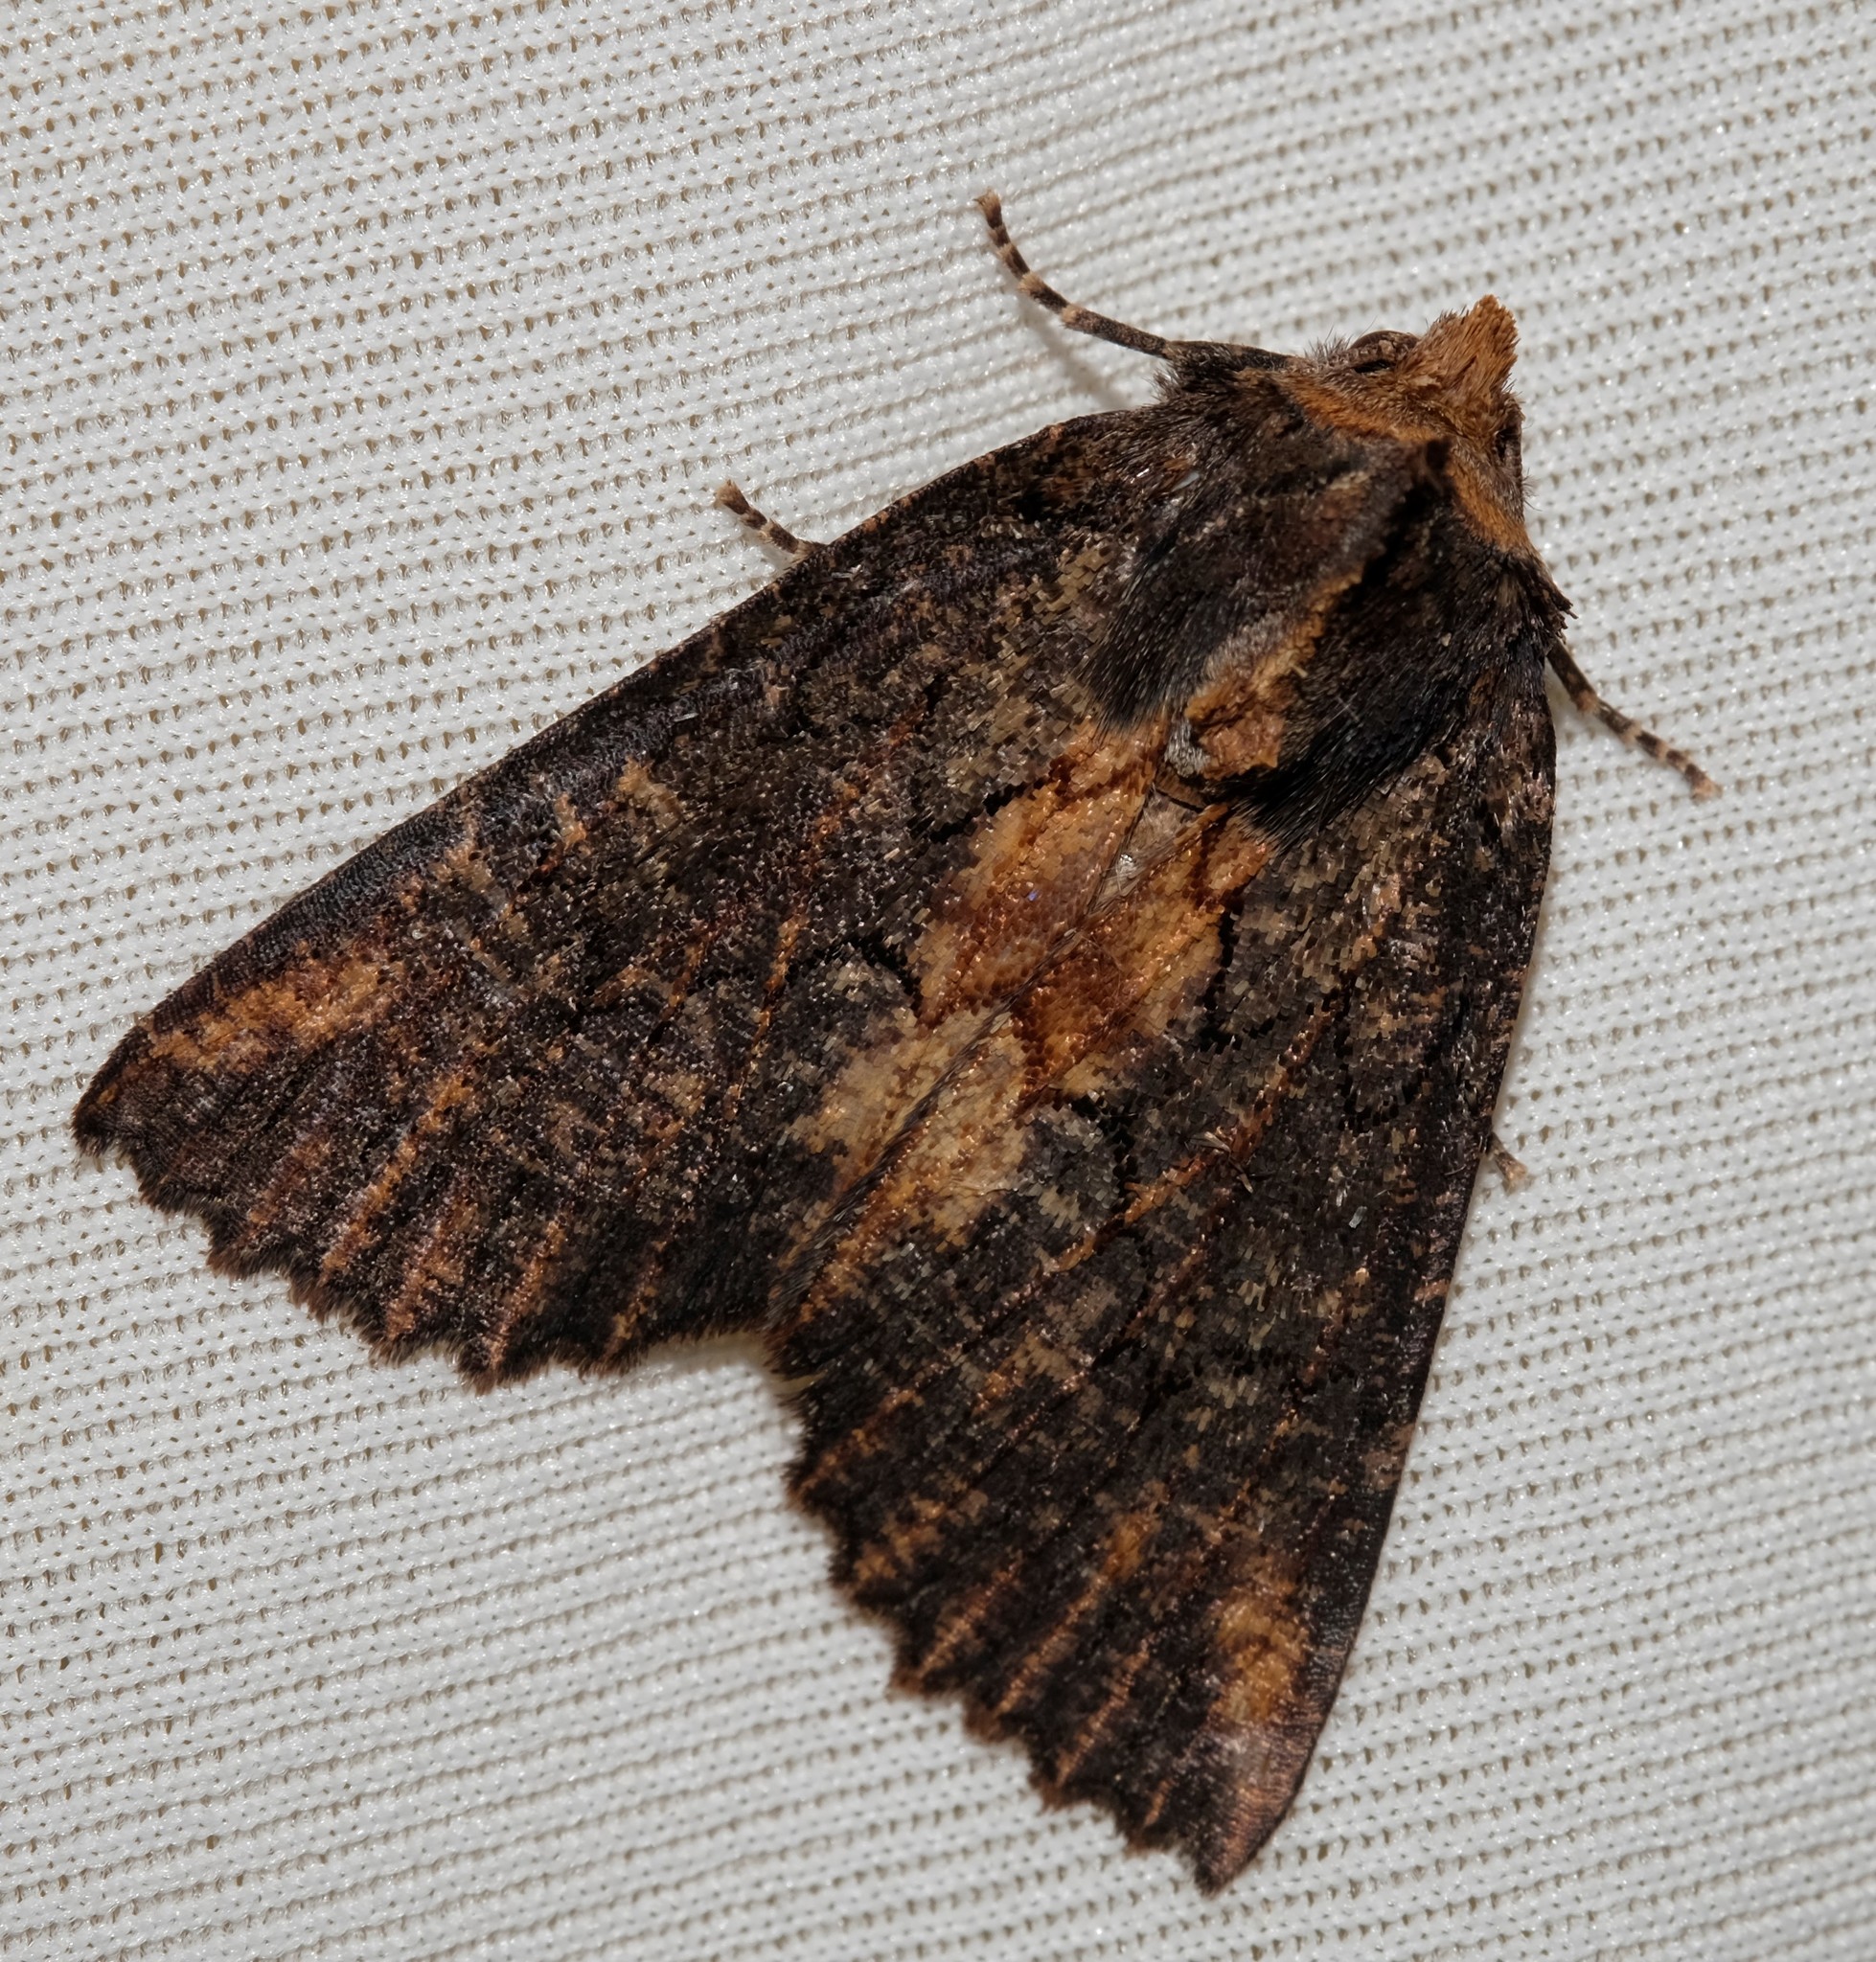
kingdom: Animalia
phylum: Arthropoda
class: Insecta
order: Lepidoptera
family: Geometridae
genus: Nisista
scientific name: Nisista serrata
